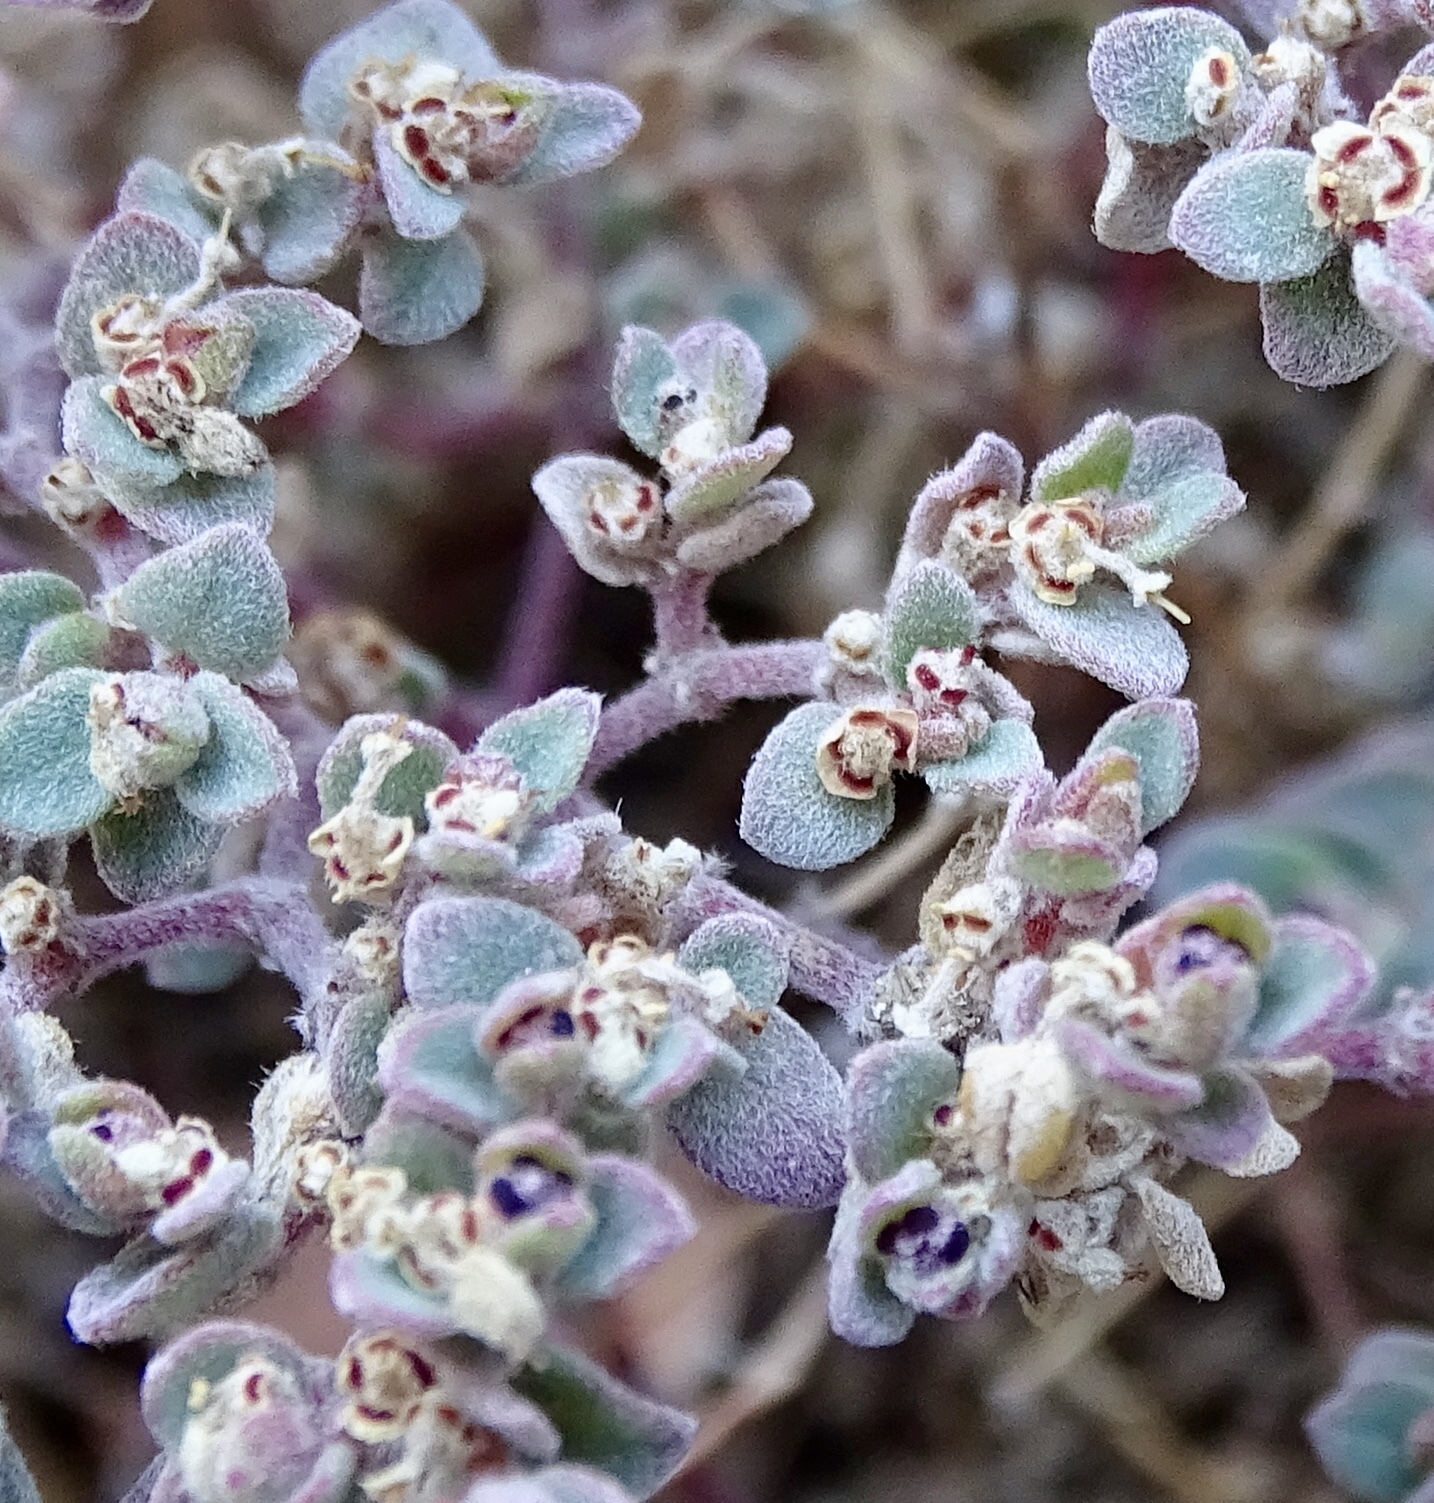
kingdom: Plantae
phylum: Tracheophyta
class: Magnoliopsida
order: Malpighiales
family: Euphorbiaceae
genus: Euphorbia
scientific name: Euphorbia melanadenia
